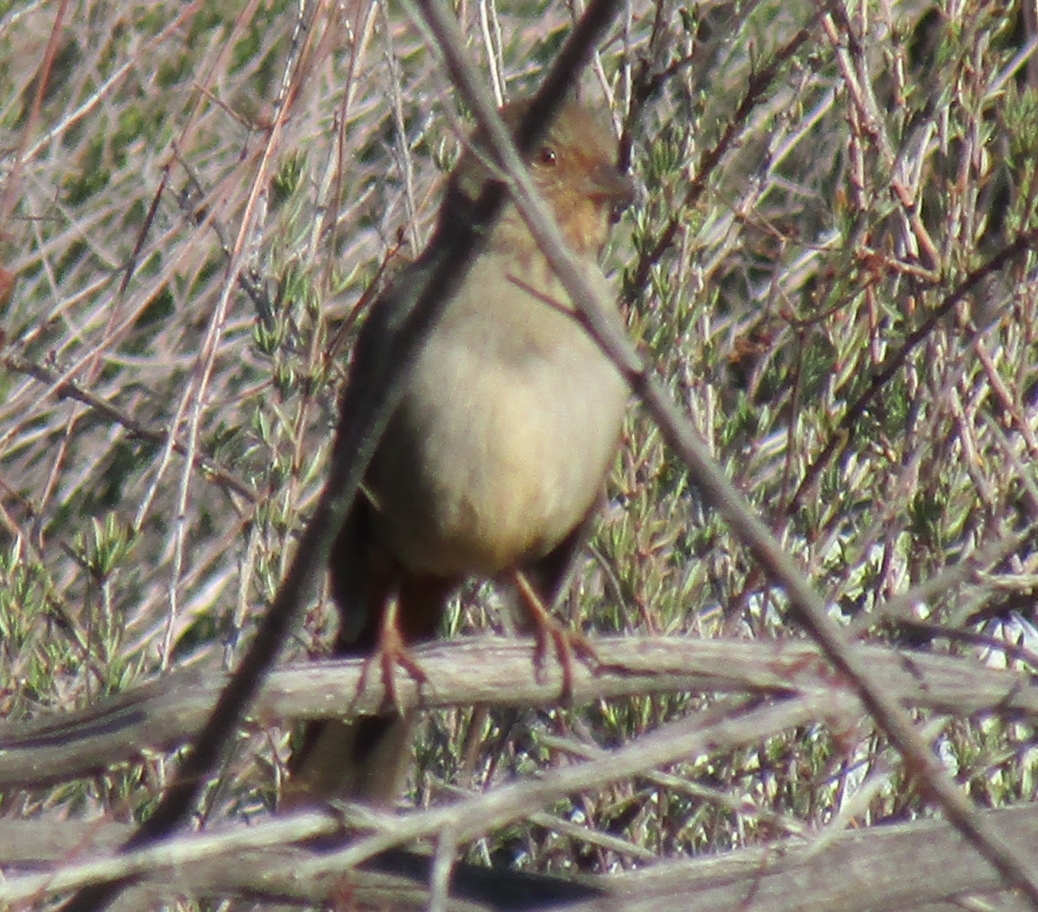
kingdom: Animalia
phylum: Chordata
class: Aves
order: Passeriformes
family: Passerellidae
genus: Melozone
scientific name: Melozone crissalis
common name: California towhee
